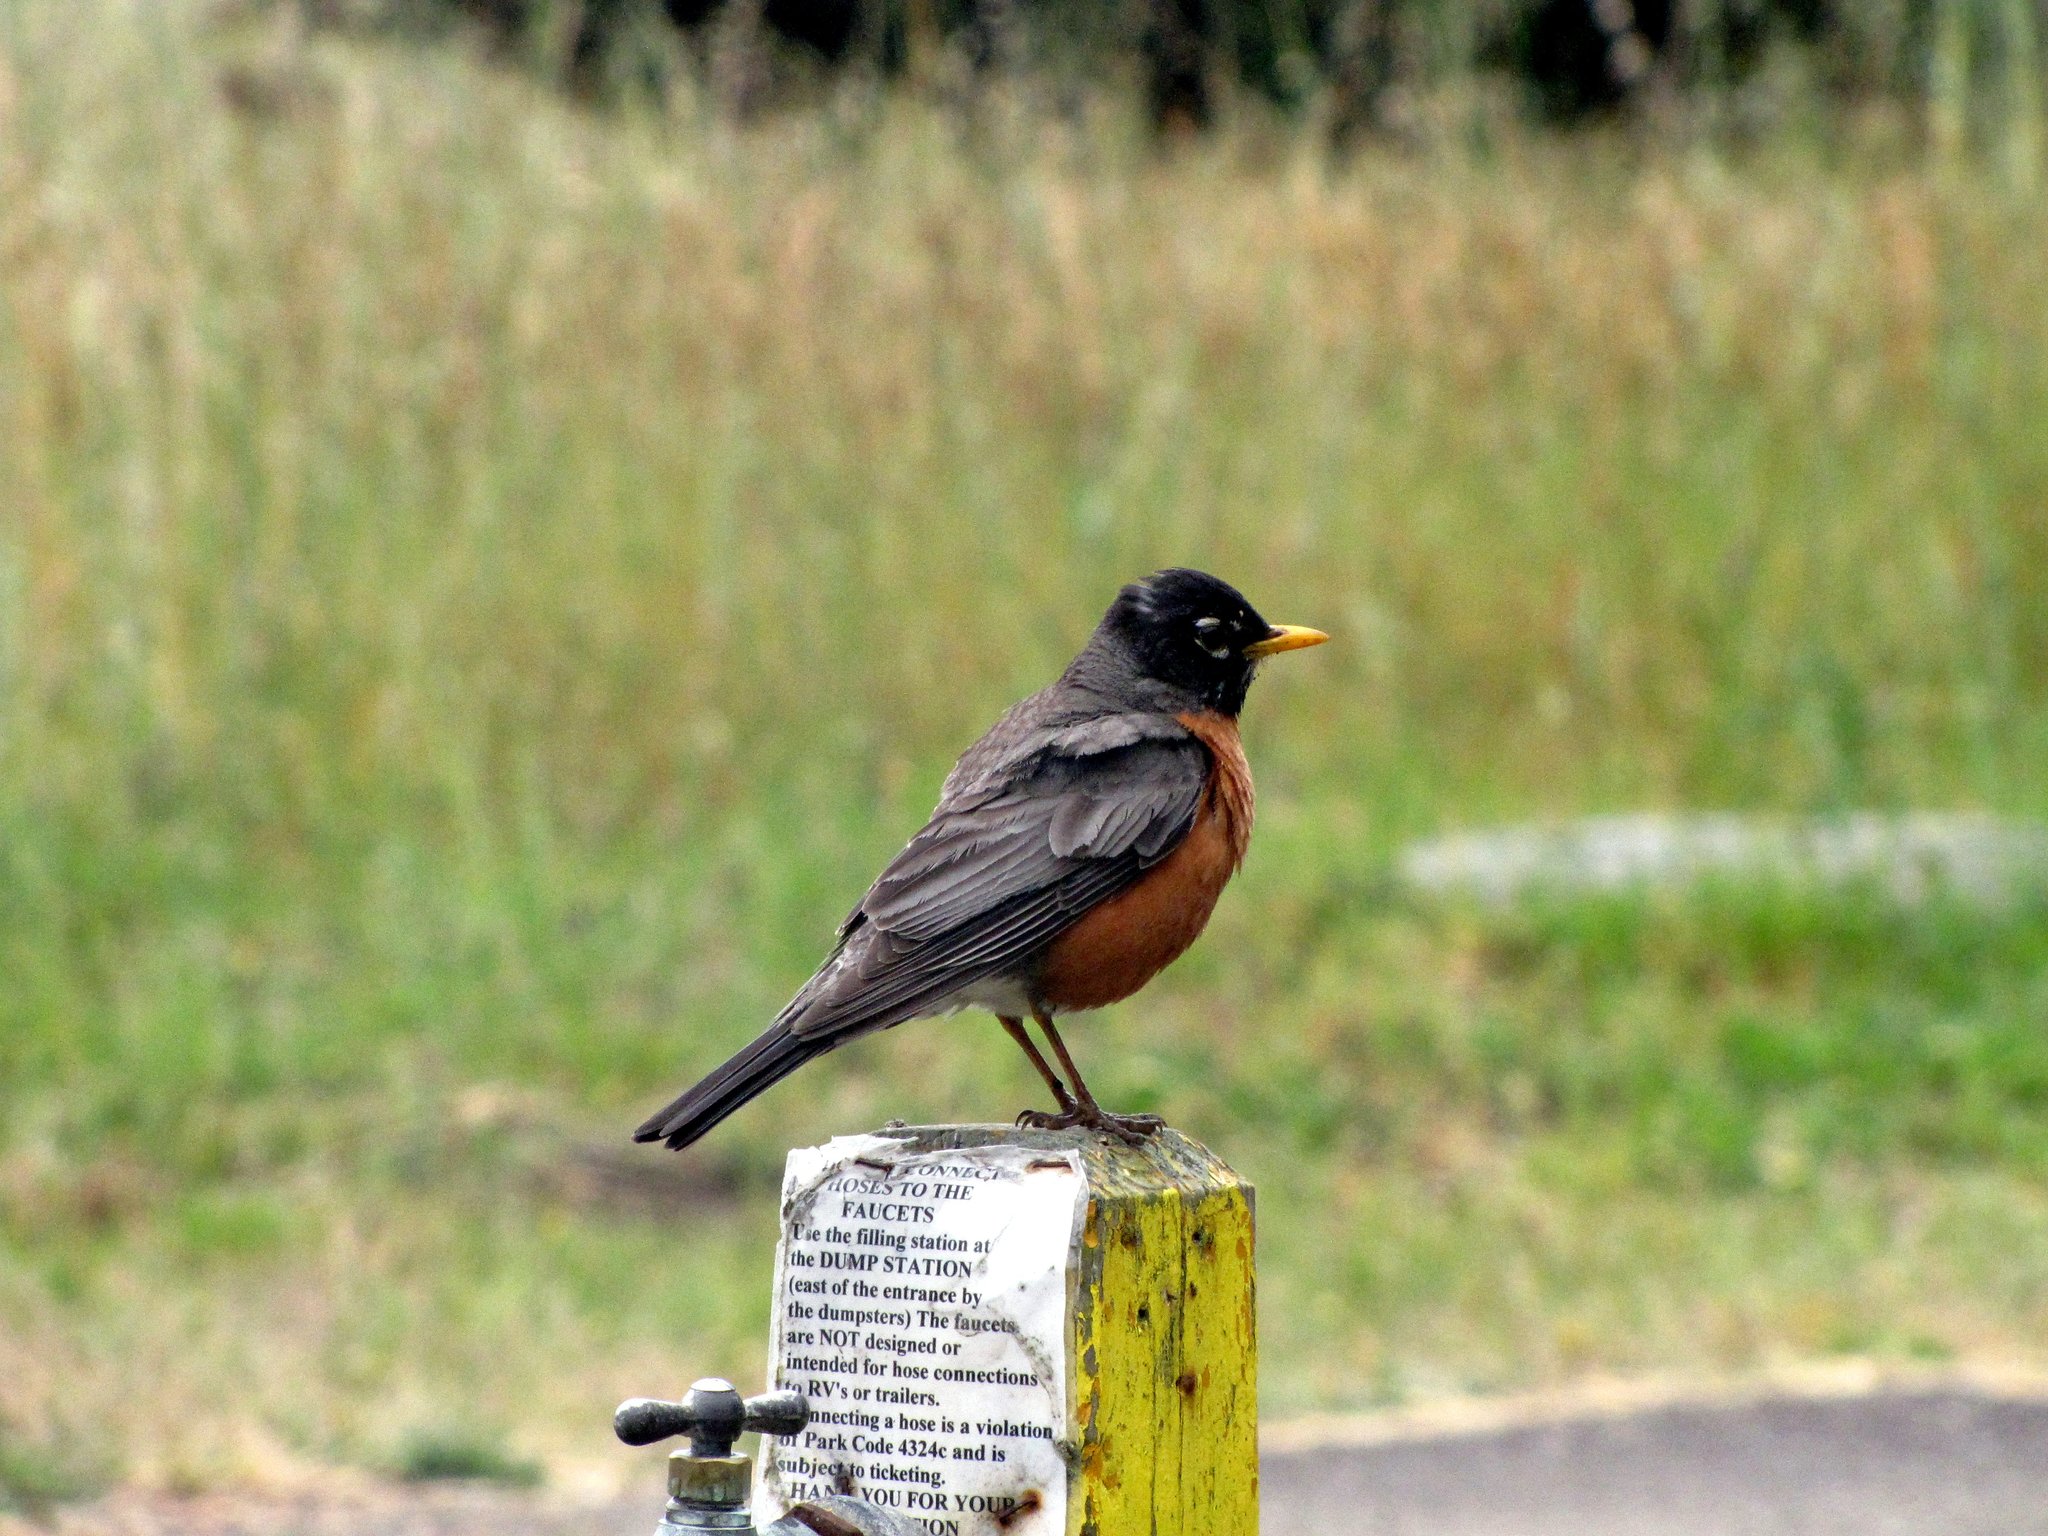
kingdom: Animalia
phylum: Chordata
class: Aves
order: Passeriformes
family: Turdidae
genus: Turdus
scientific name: Turdus migratorius
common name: American robin
